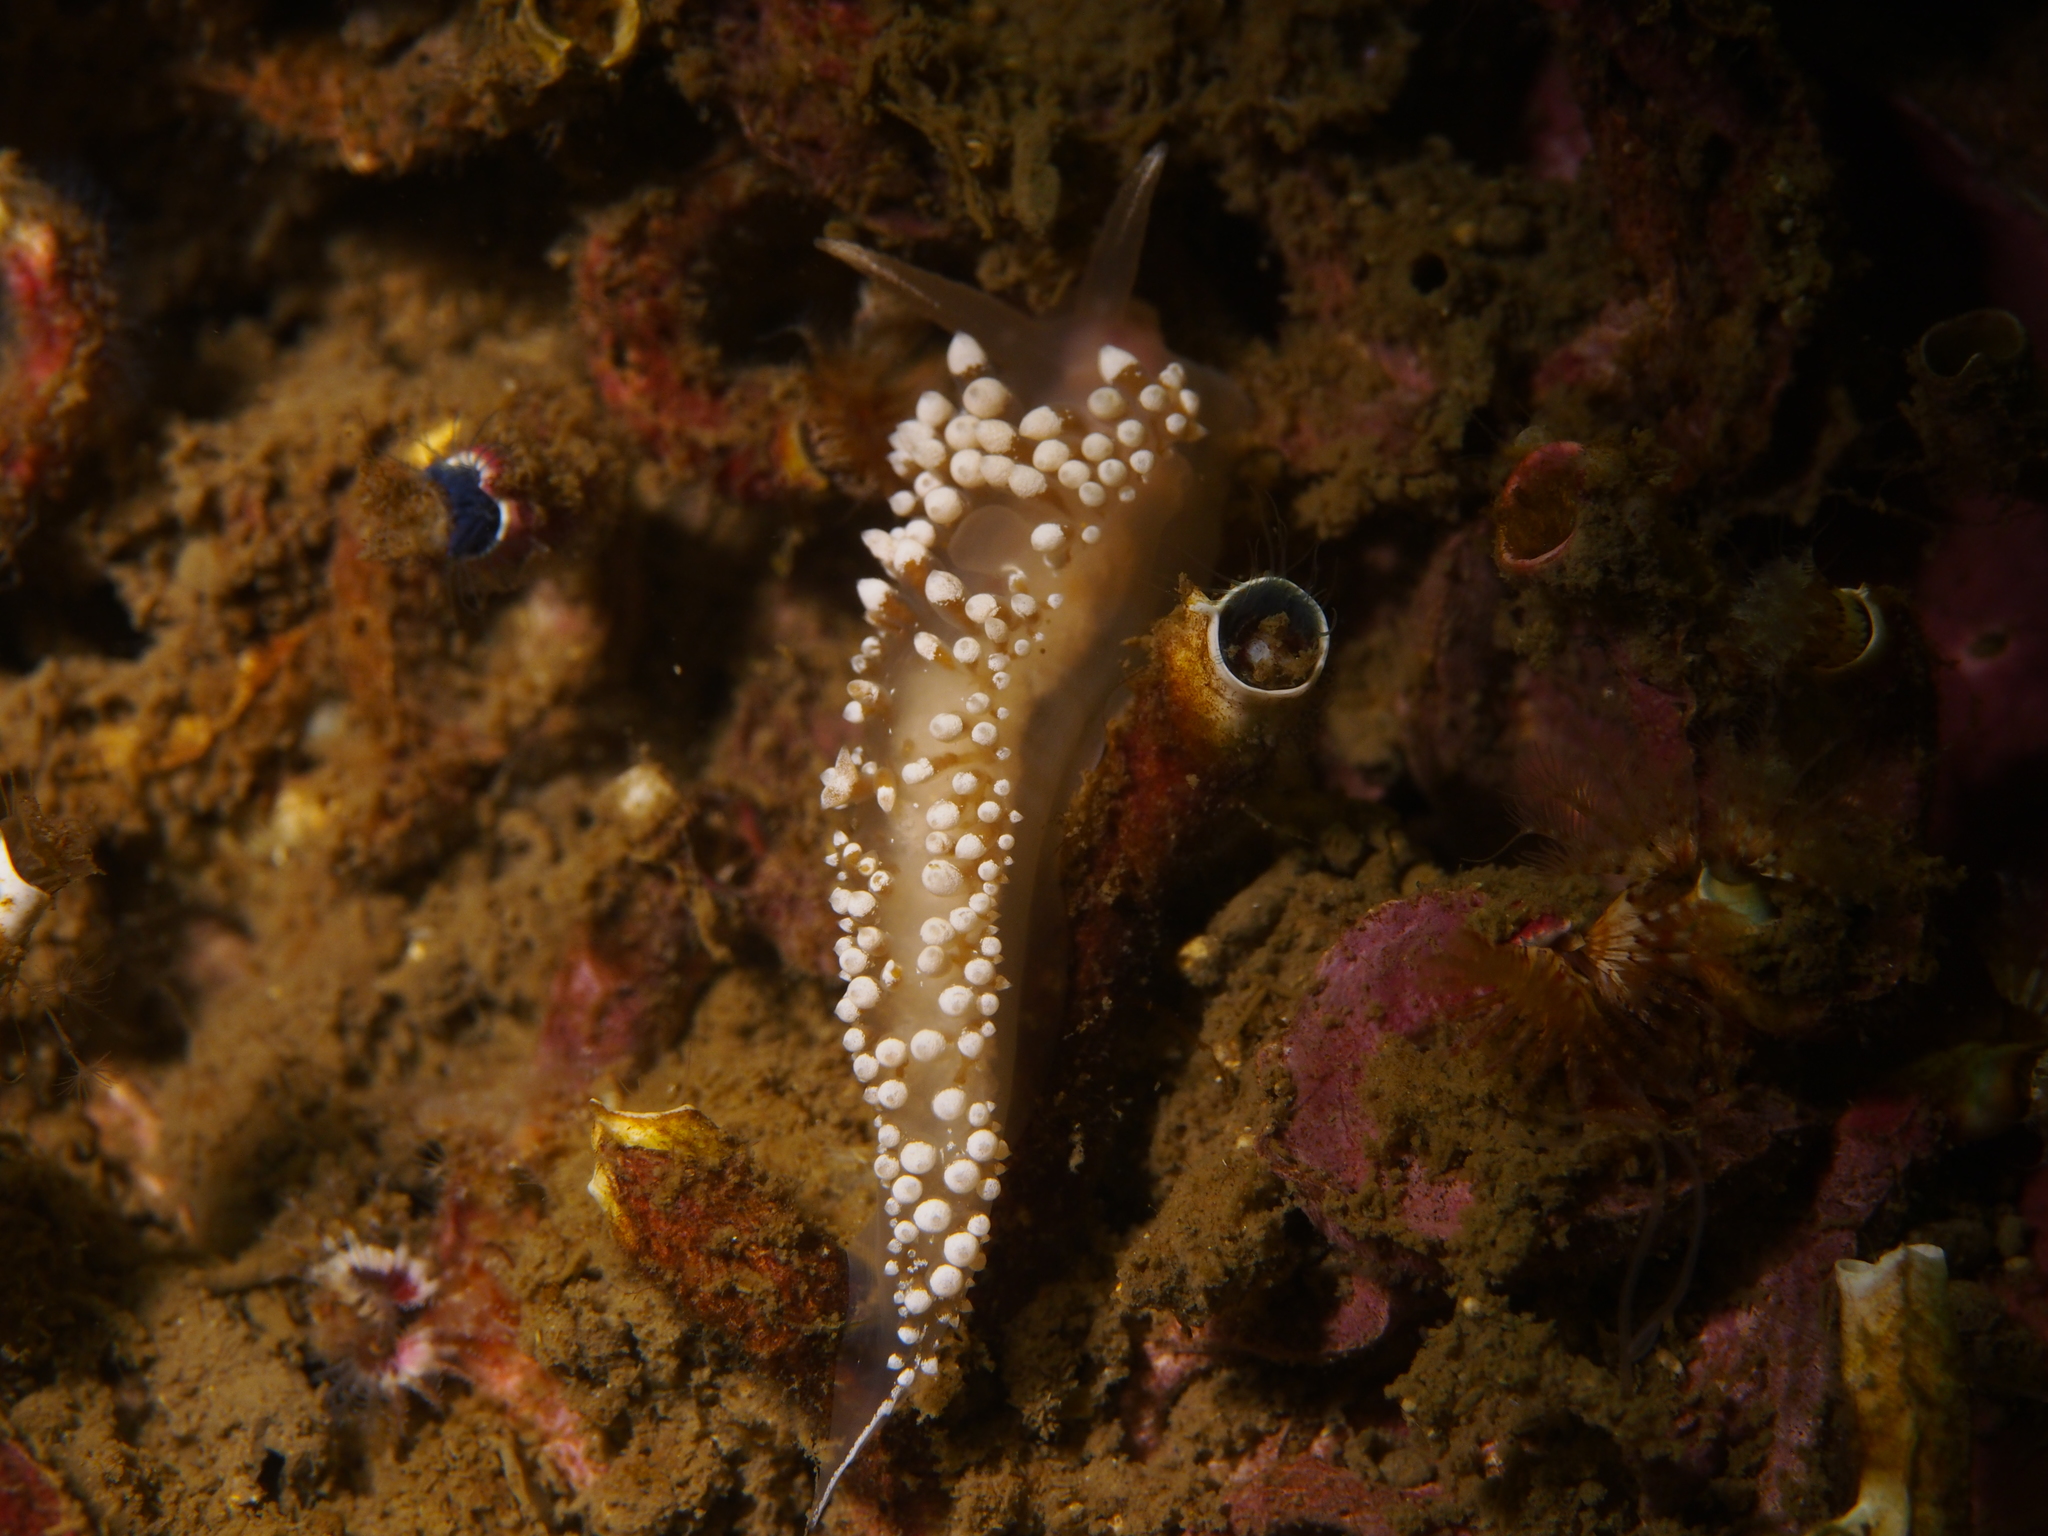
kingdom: Animalia
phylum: Mollusca
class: Gastropoda
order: Nudibranchia
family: Coryphellidae
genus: Coryphella
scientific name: Coryphella verrucosa
